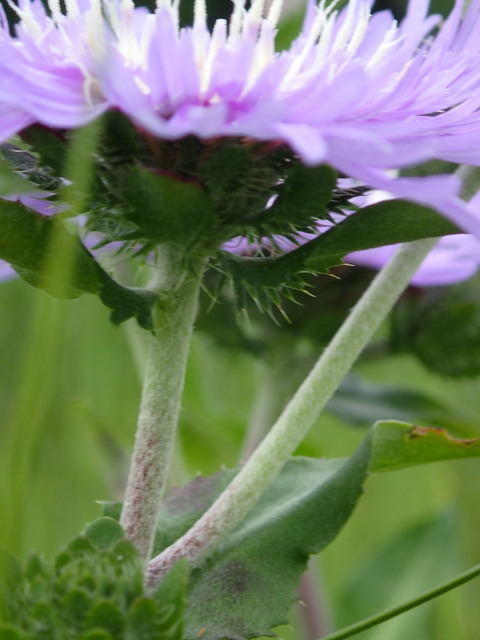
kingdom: Plantae
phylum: Tracheophyta
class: Magnoliopsida
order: Asterales
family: Asteraceae
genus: Stokesia
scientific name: Stokesia laevis
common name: Stokes'-aster
